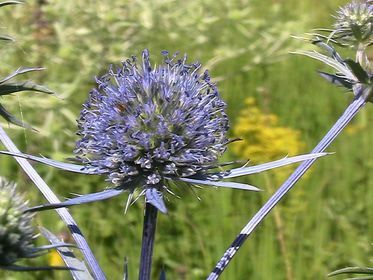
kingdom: Plantae
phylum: Tracheophyta
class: Magnoliopsida
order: Apiales
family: Apiaceae
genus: Eryngium
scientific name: Eryngium planum
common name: Blue eryngo
